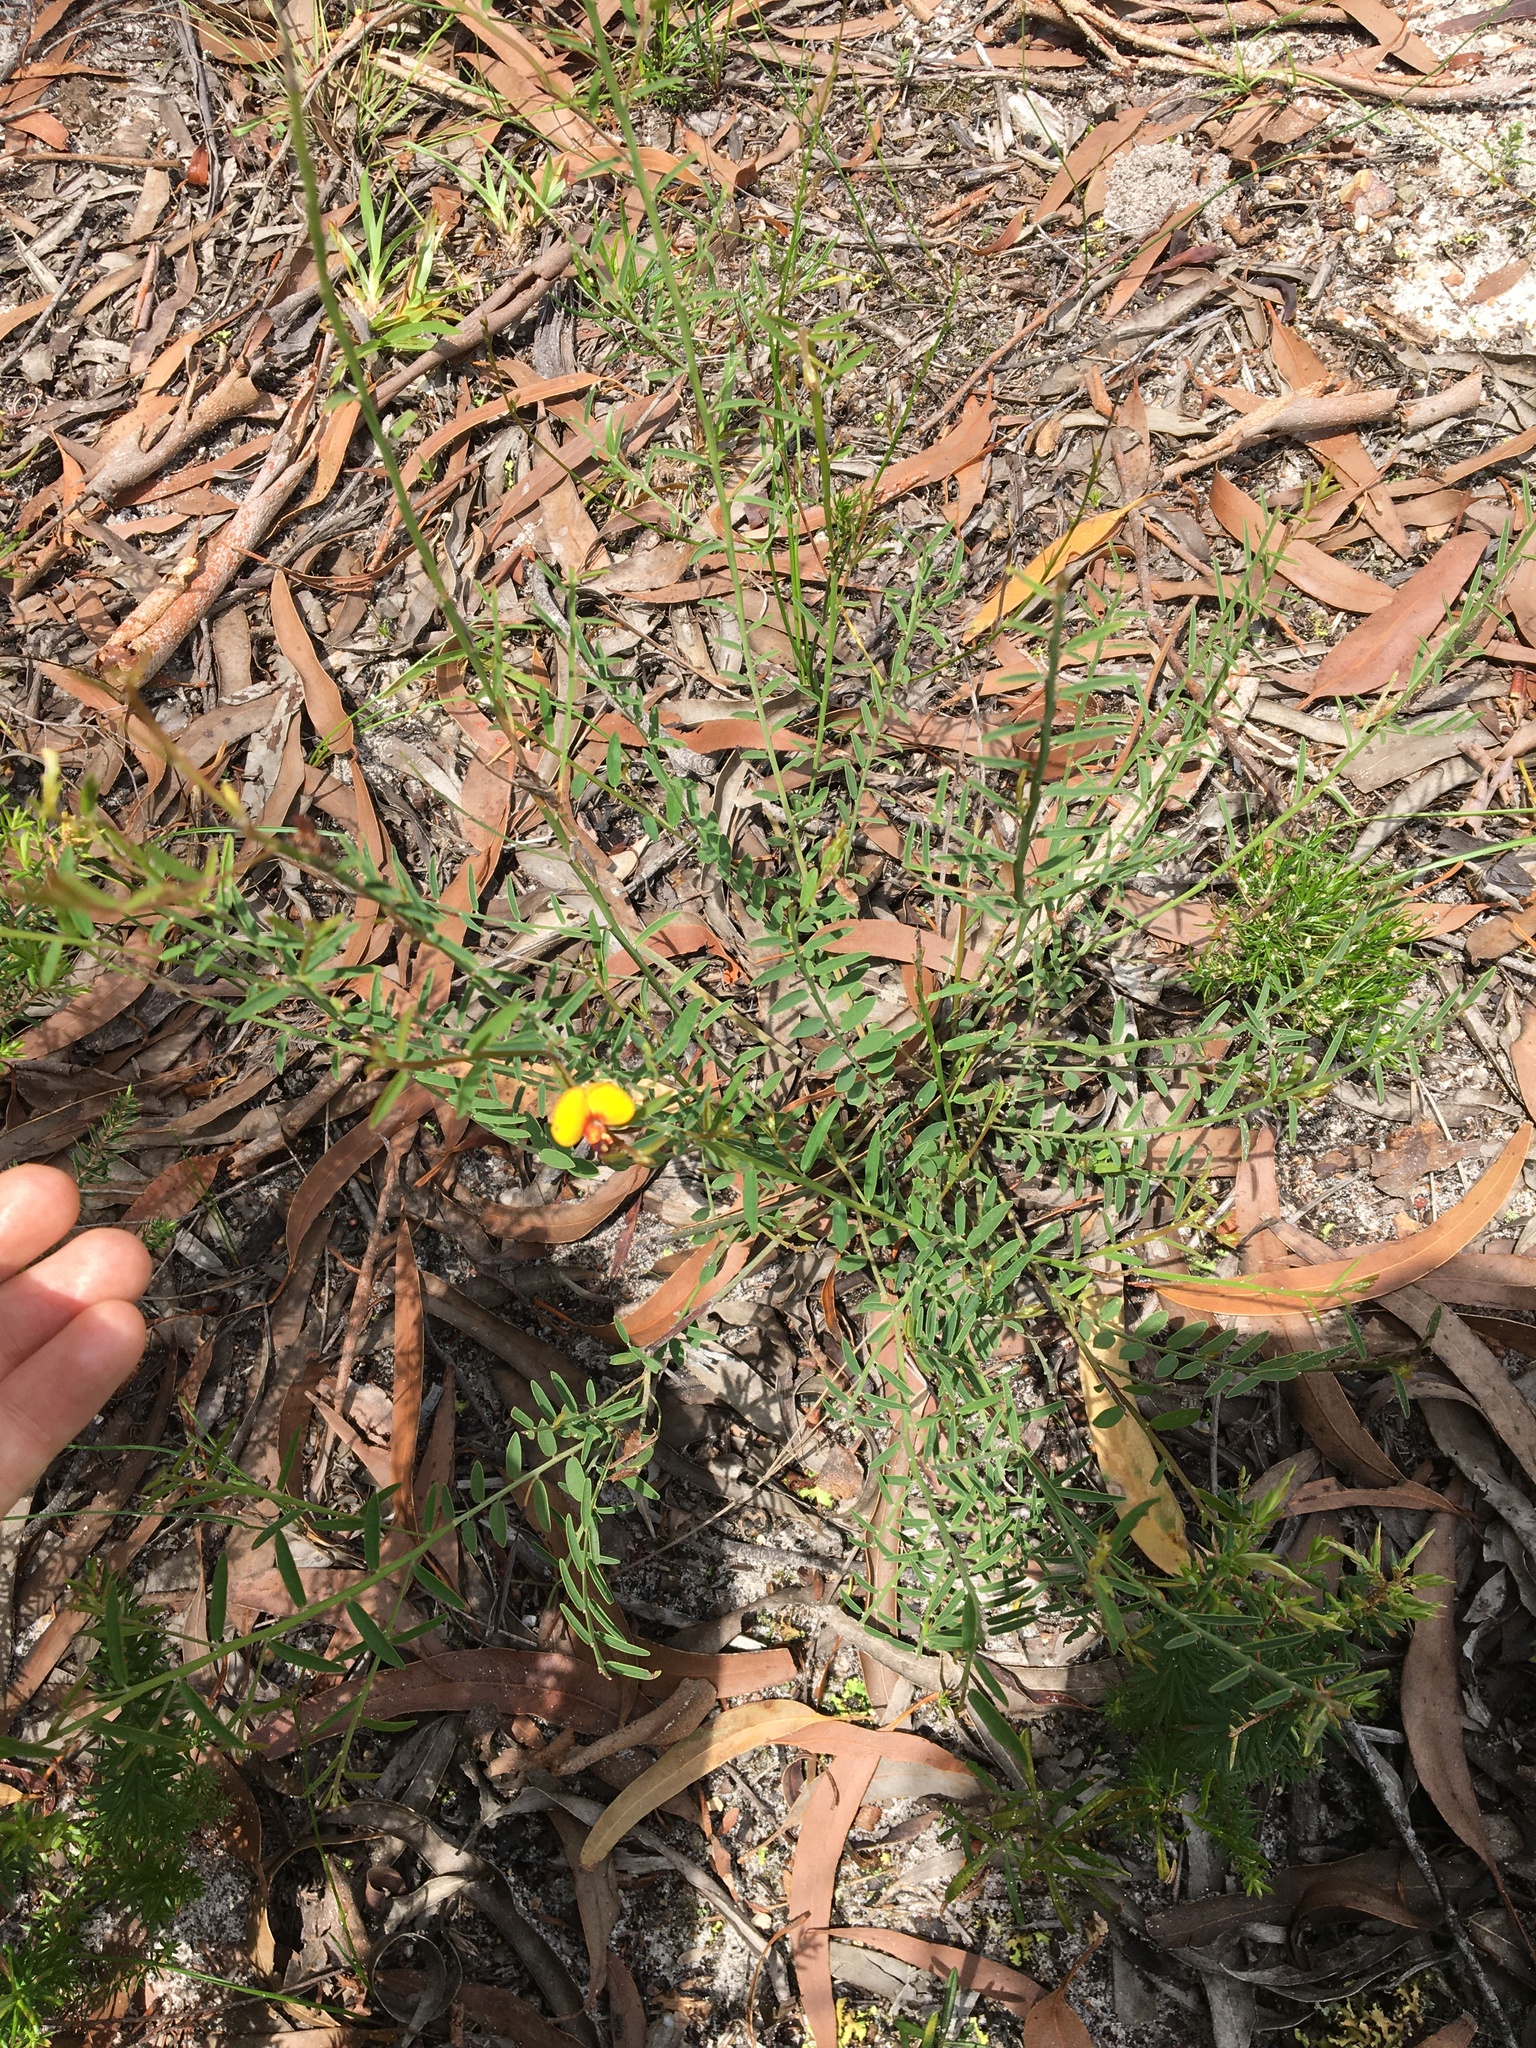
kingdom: Plantae
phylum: Tracheophyta
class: Magnoliopsida
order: Fabales
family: Fabaceae
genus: Bossiaea
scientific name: Bossiaea heterophylla
